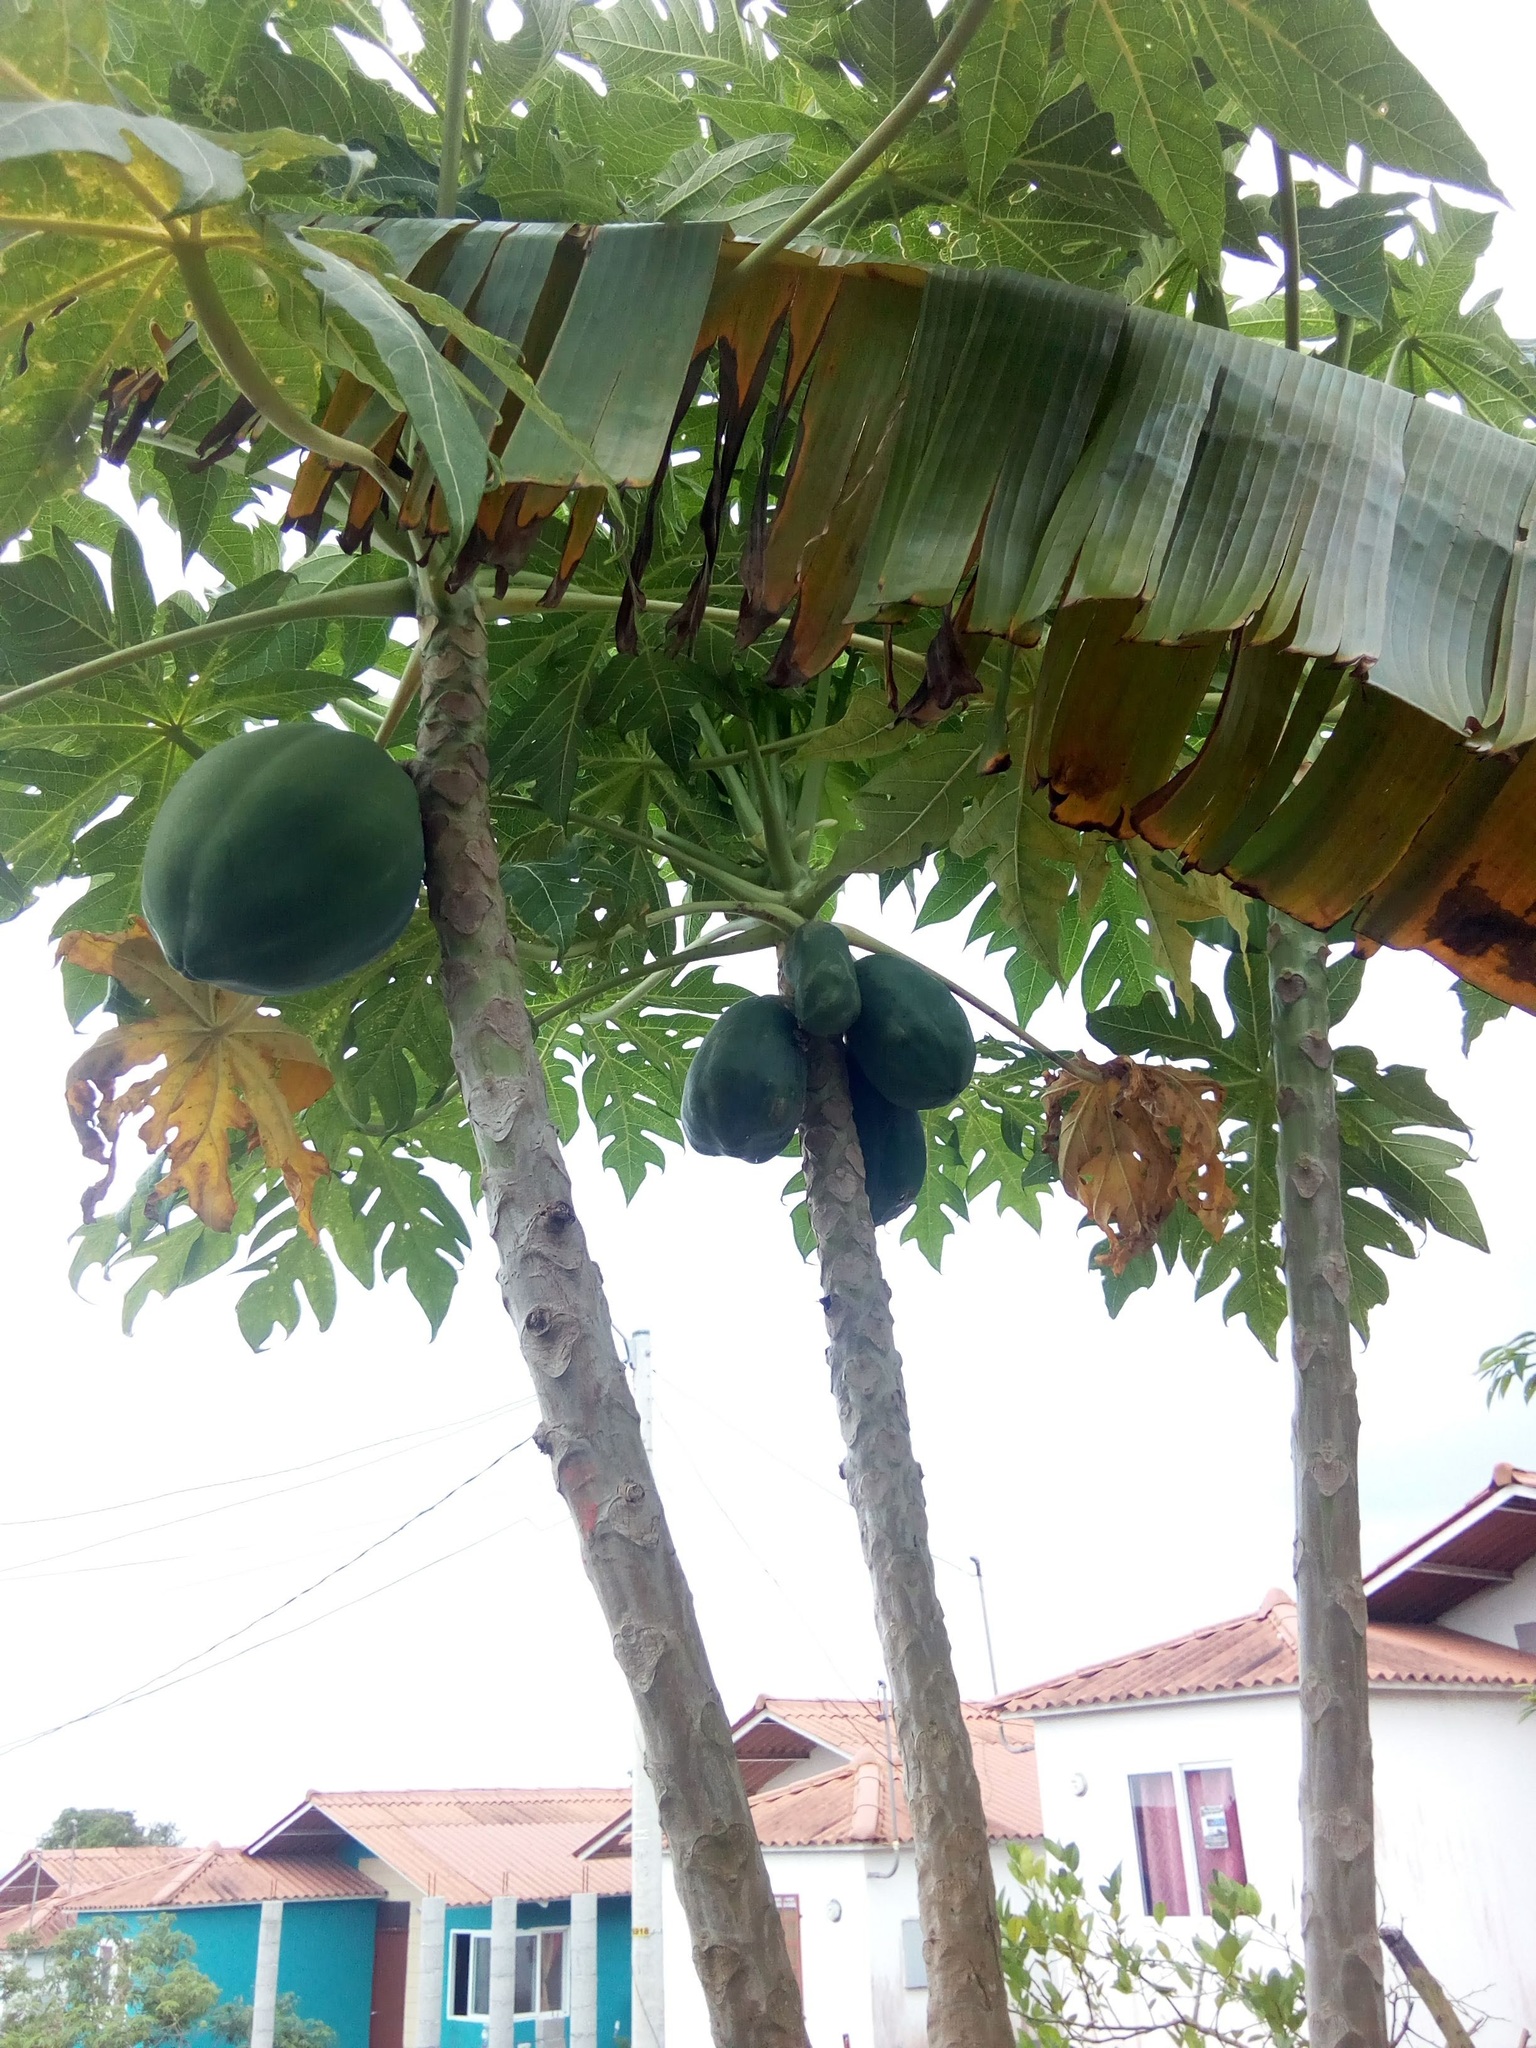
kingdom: Plantae
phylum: Tracheophyta
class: Magnoliopsida
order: Brassicales
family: Caricaceae
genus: Carica
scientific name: Carica papaya
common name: Papaya
